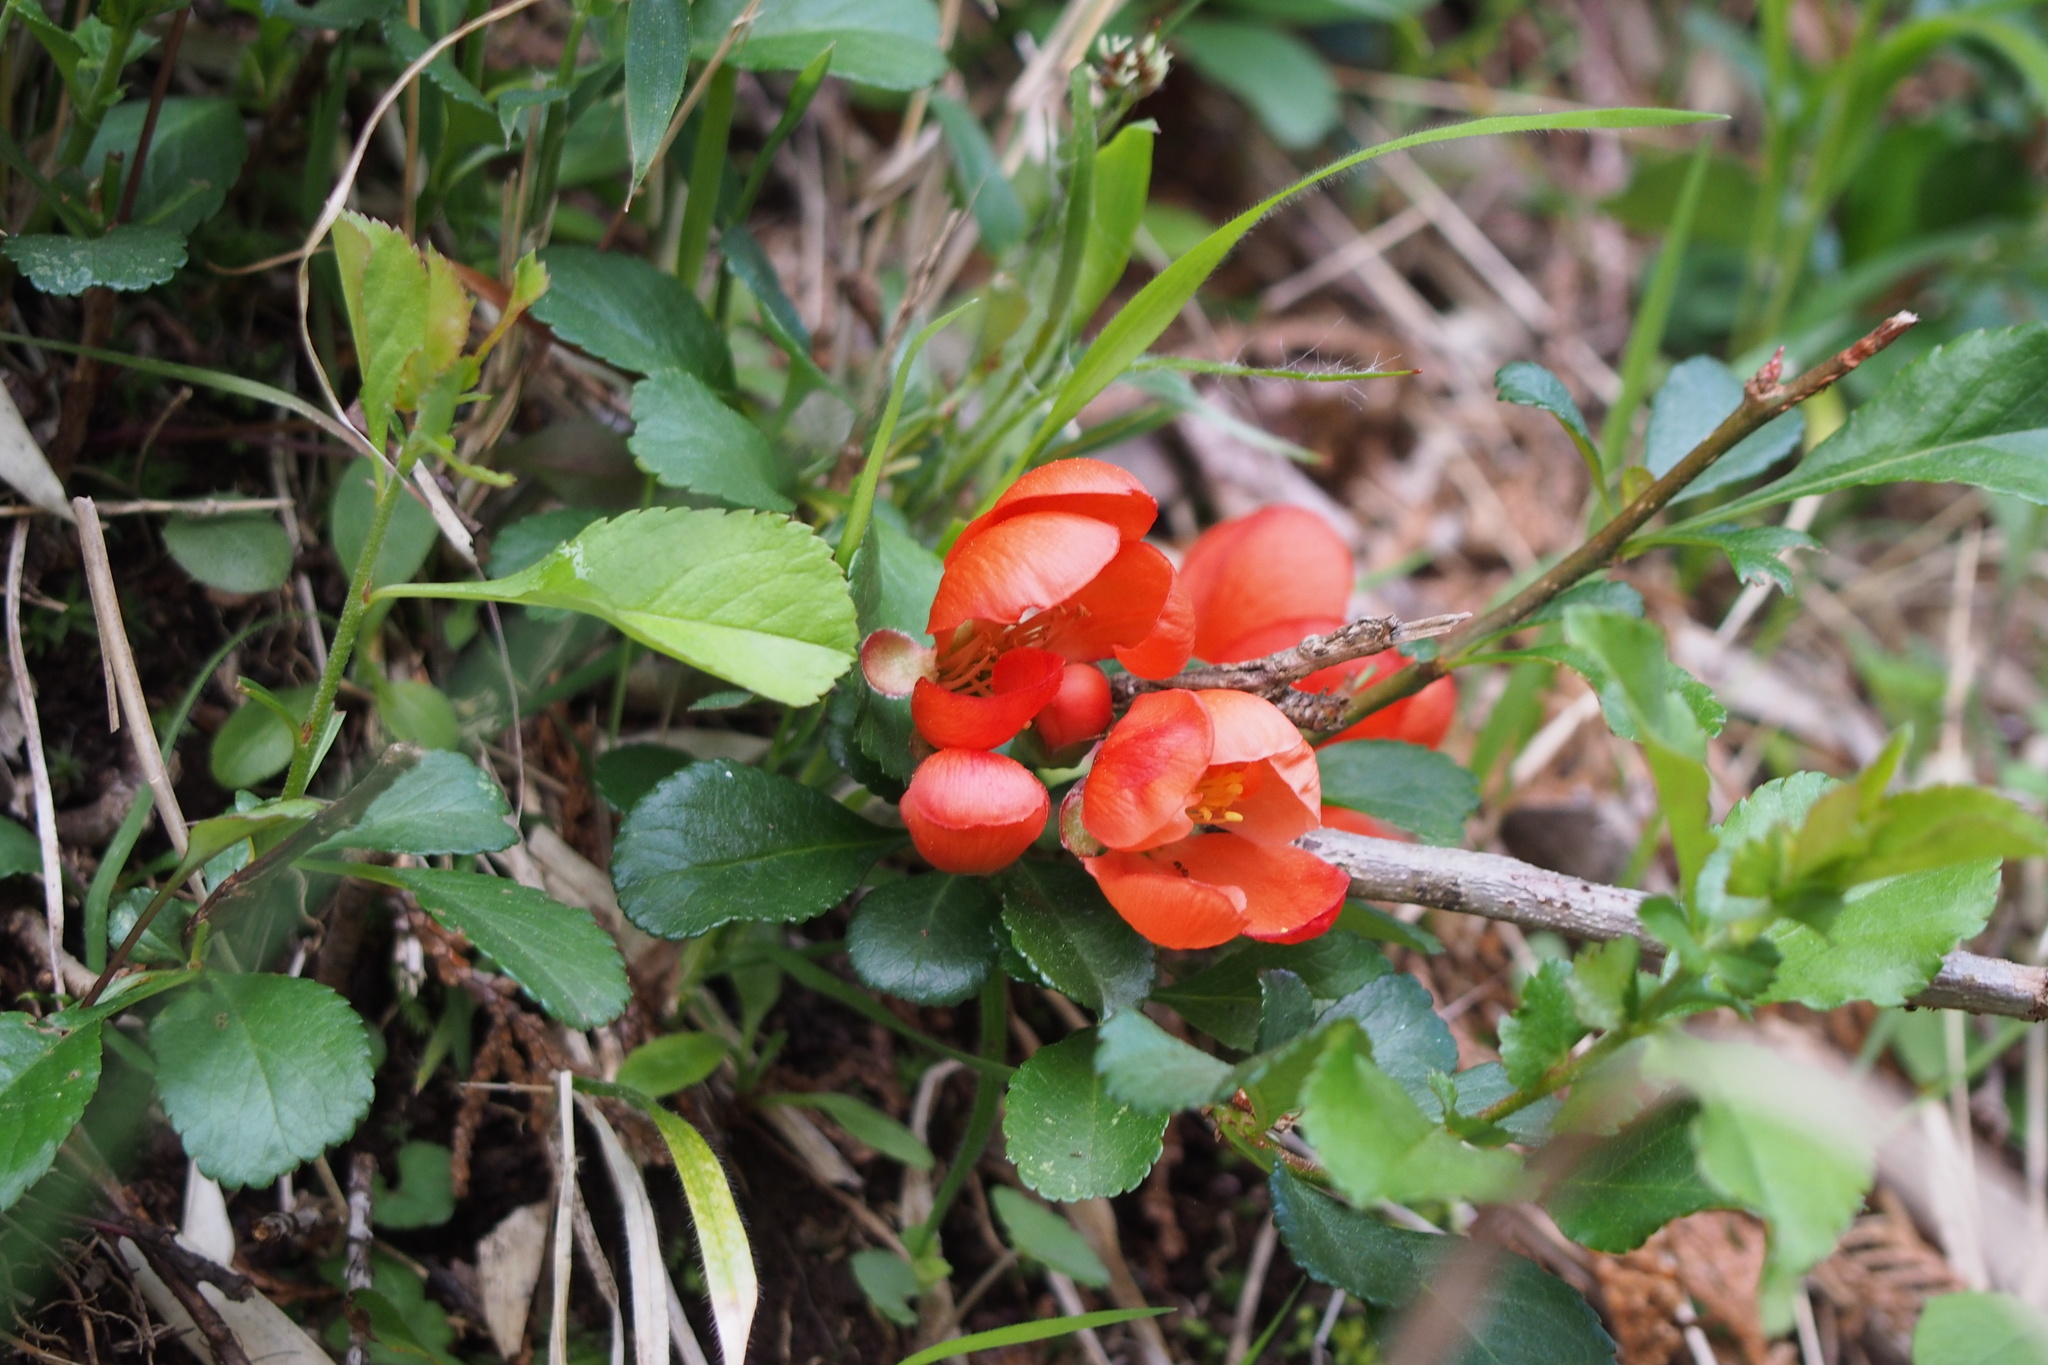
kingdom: Plantae
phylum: Tracheophyta
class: Magnoliopsida
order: Rosales
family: Rosaceae
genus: Chaenomeles
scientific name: Chaenomeles japonica
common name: Japanese quince
